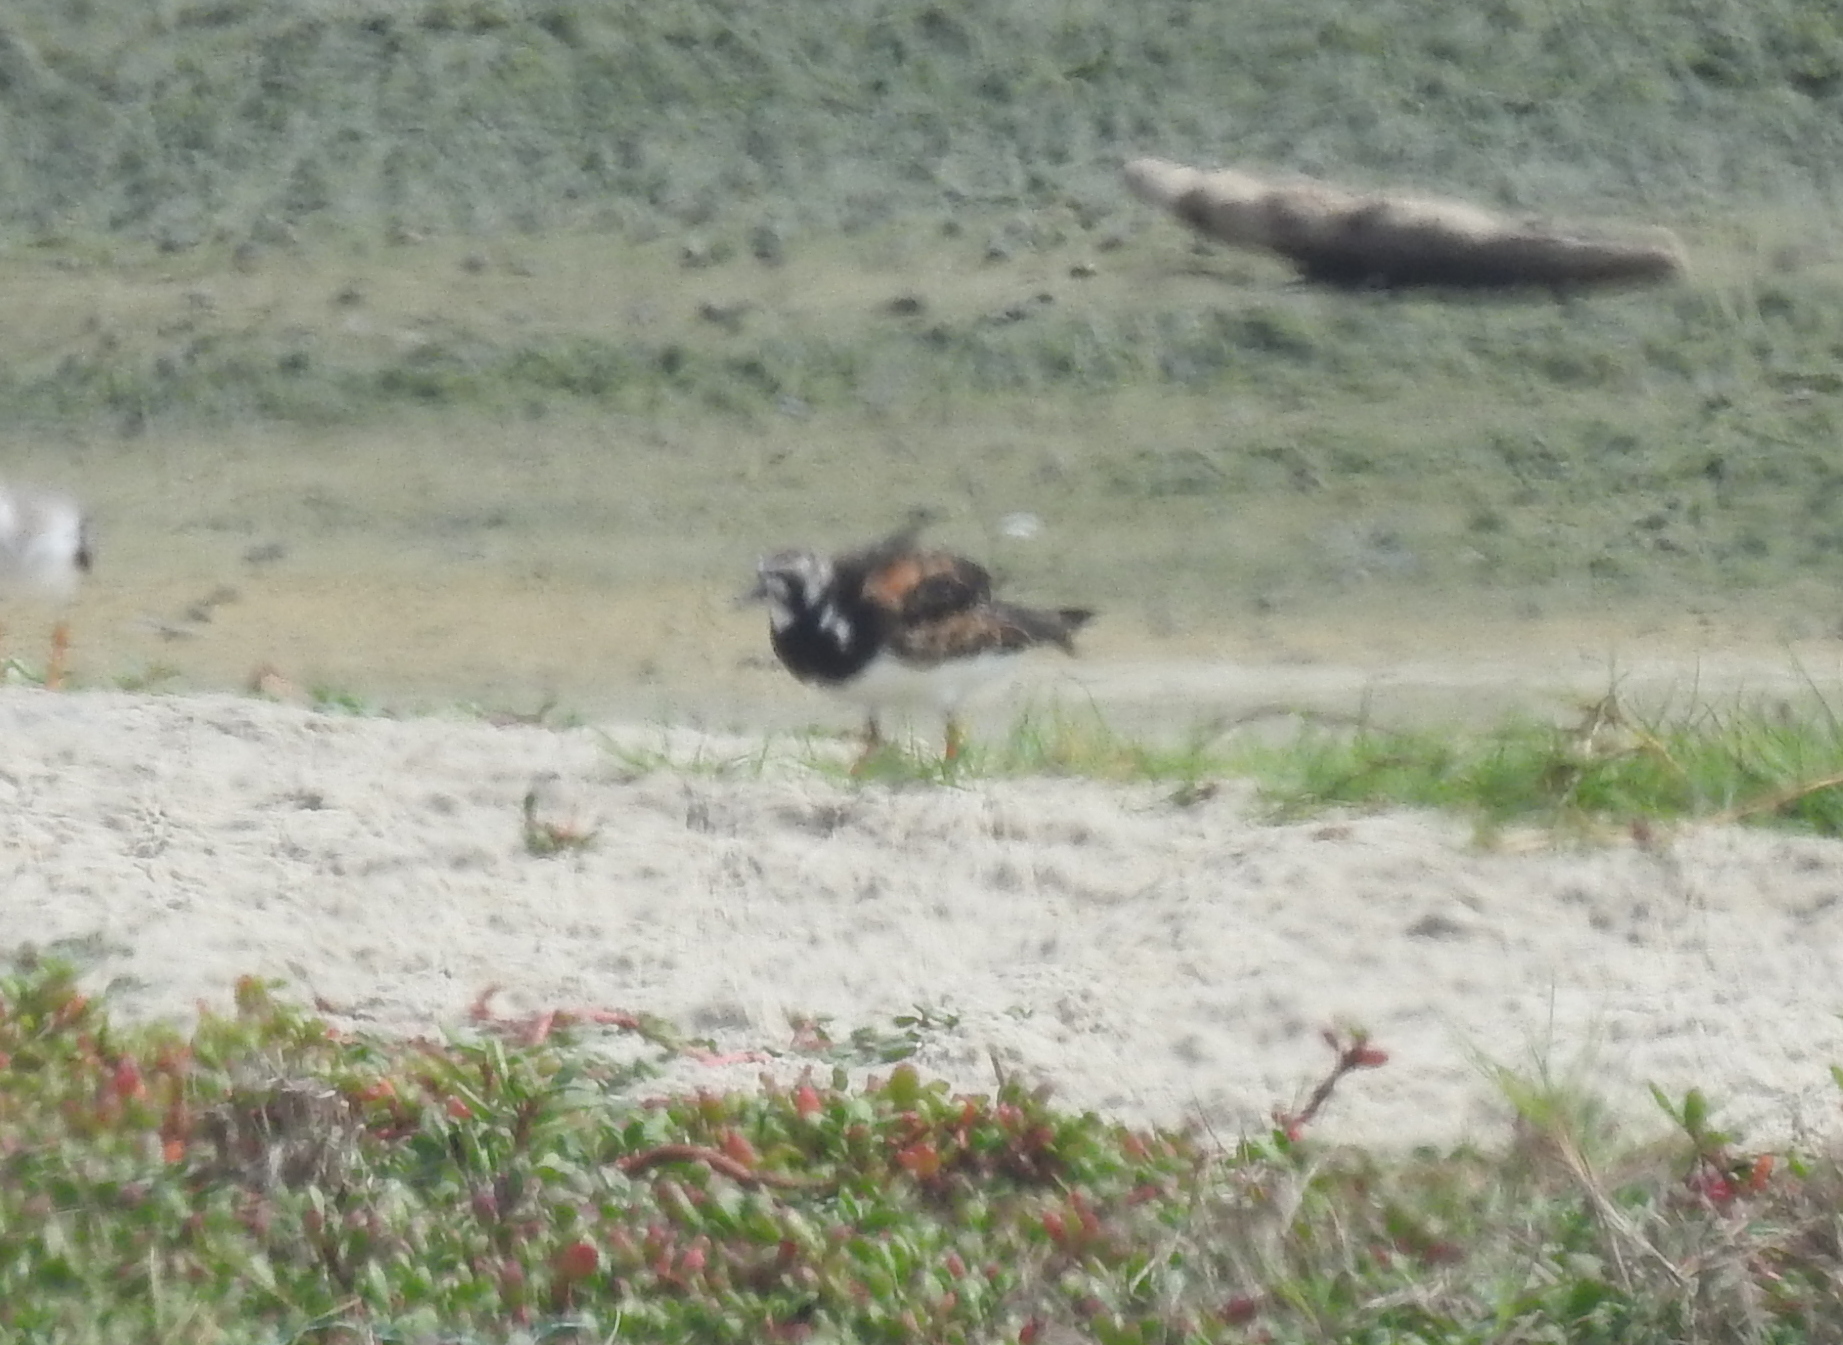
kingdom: Animalia
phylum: Chordata
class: Aves
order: Charadriiformes
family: Scolopacidae
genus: Arenaria
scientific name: Arenaria interpres
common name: Ruddy turnstone
